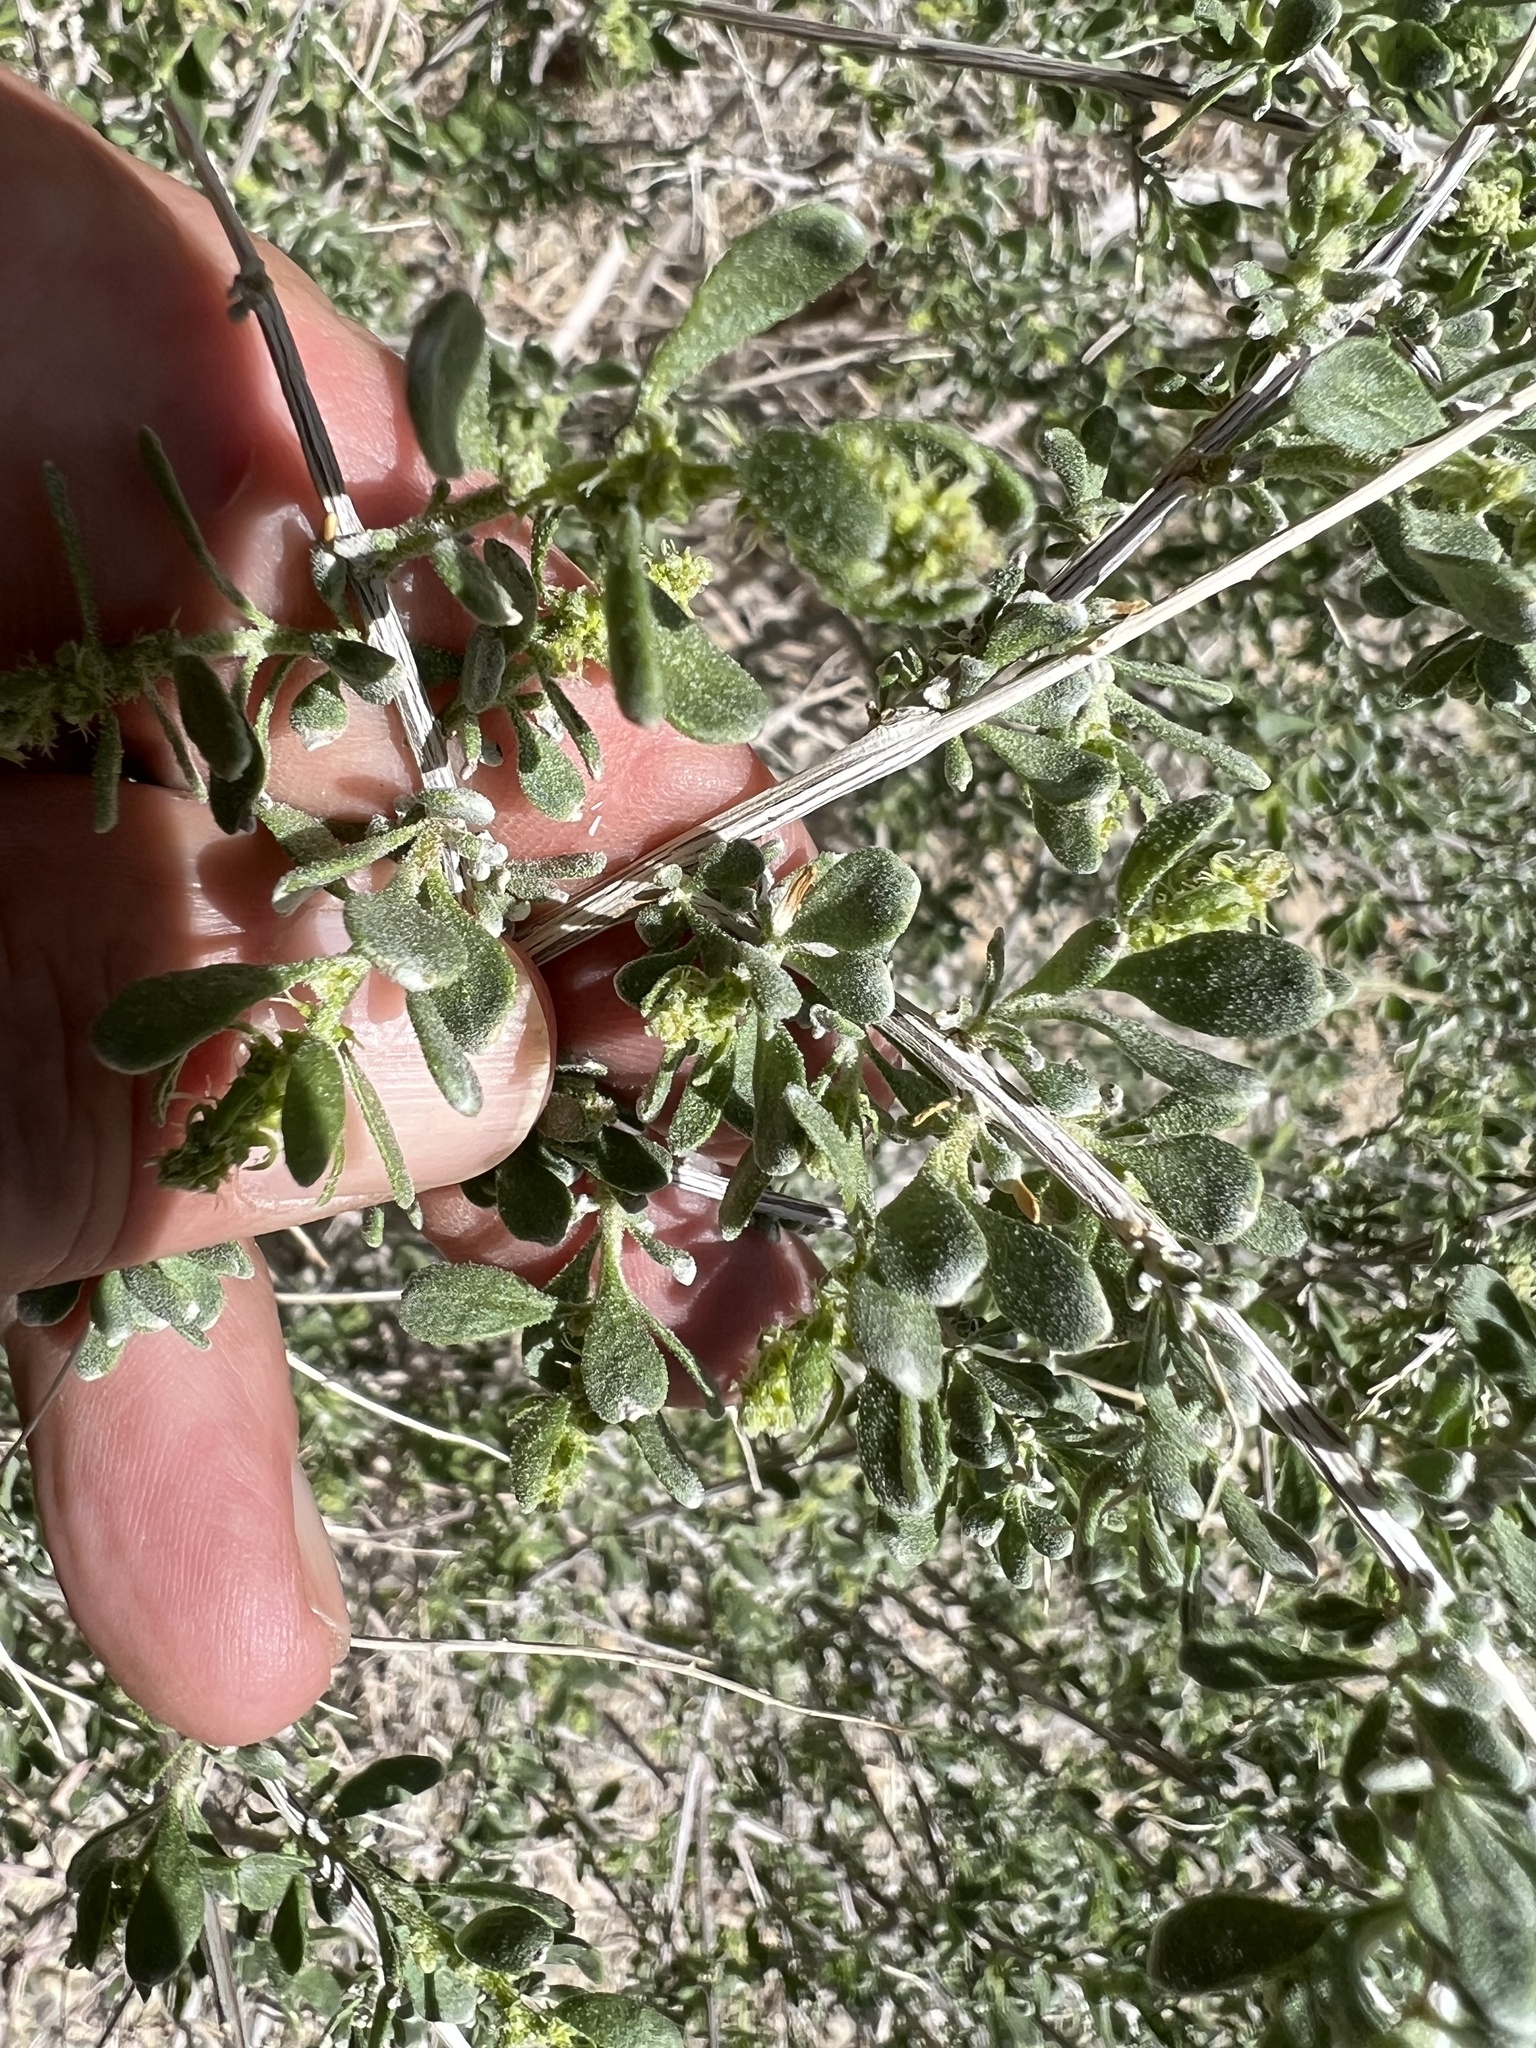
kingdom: Plantae
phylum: Tracheophyta
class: Magnoliopsida
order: Caryophyllales
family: Amaranthaceae
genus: Grayia
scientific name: Grayia spinosa
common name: Spiny hopsage
